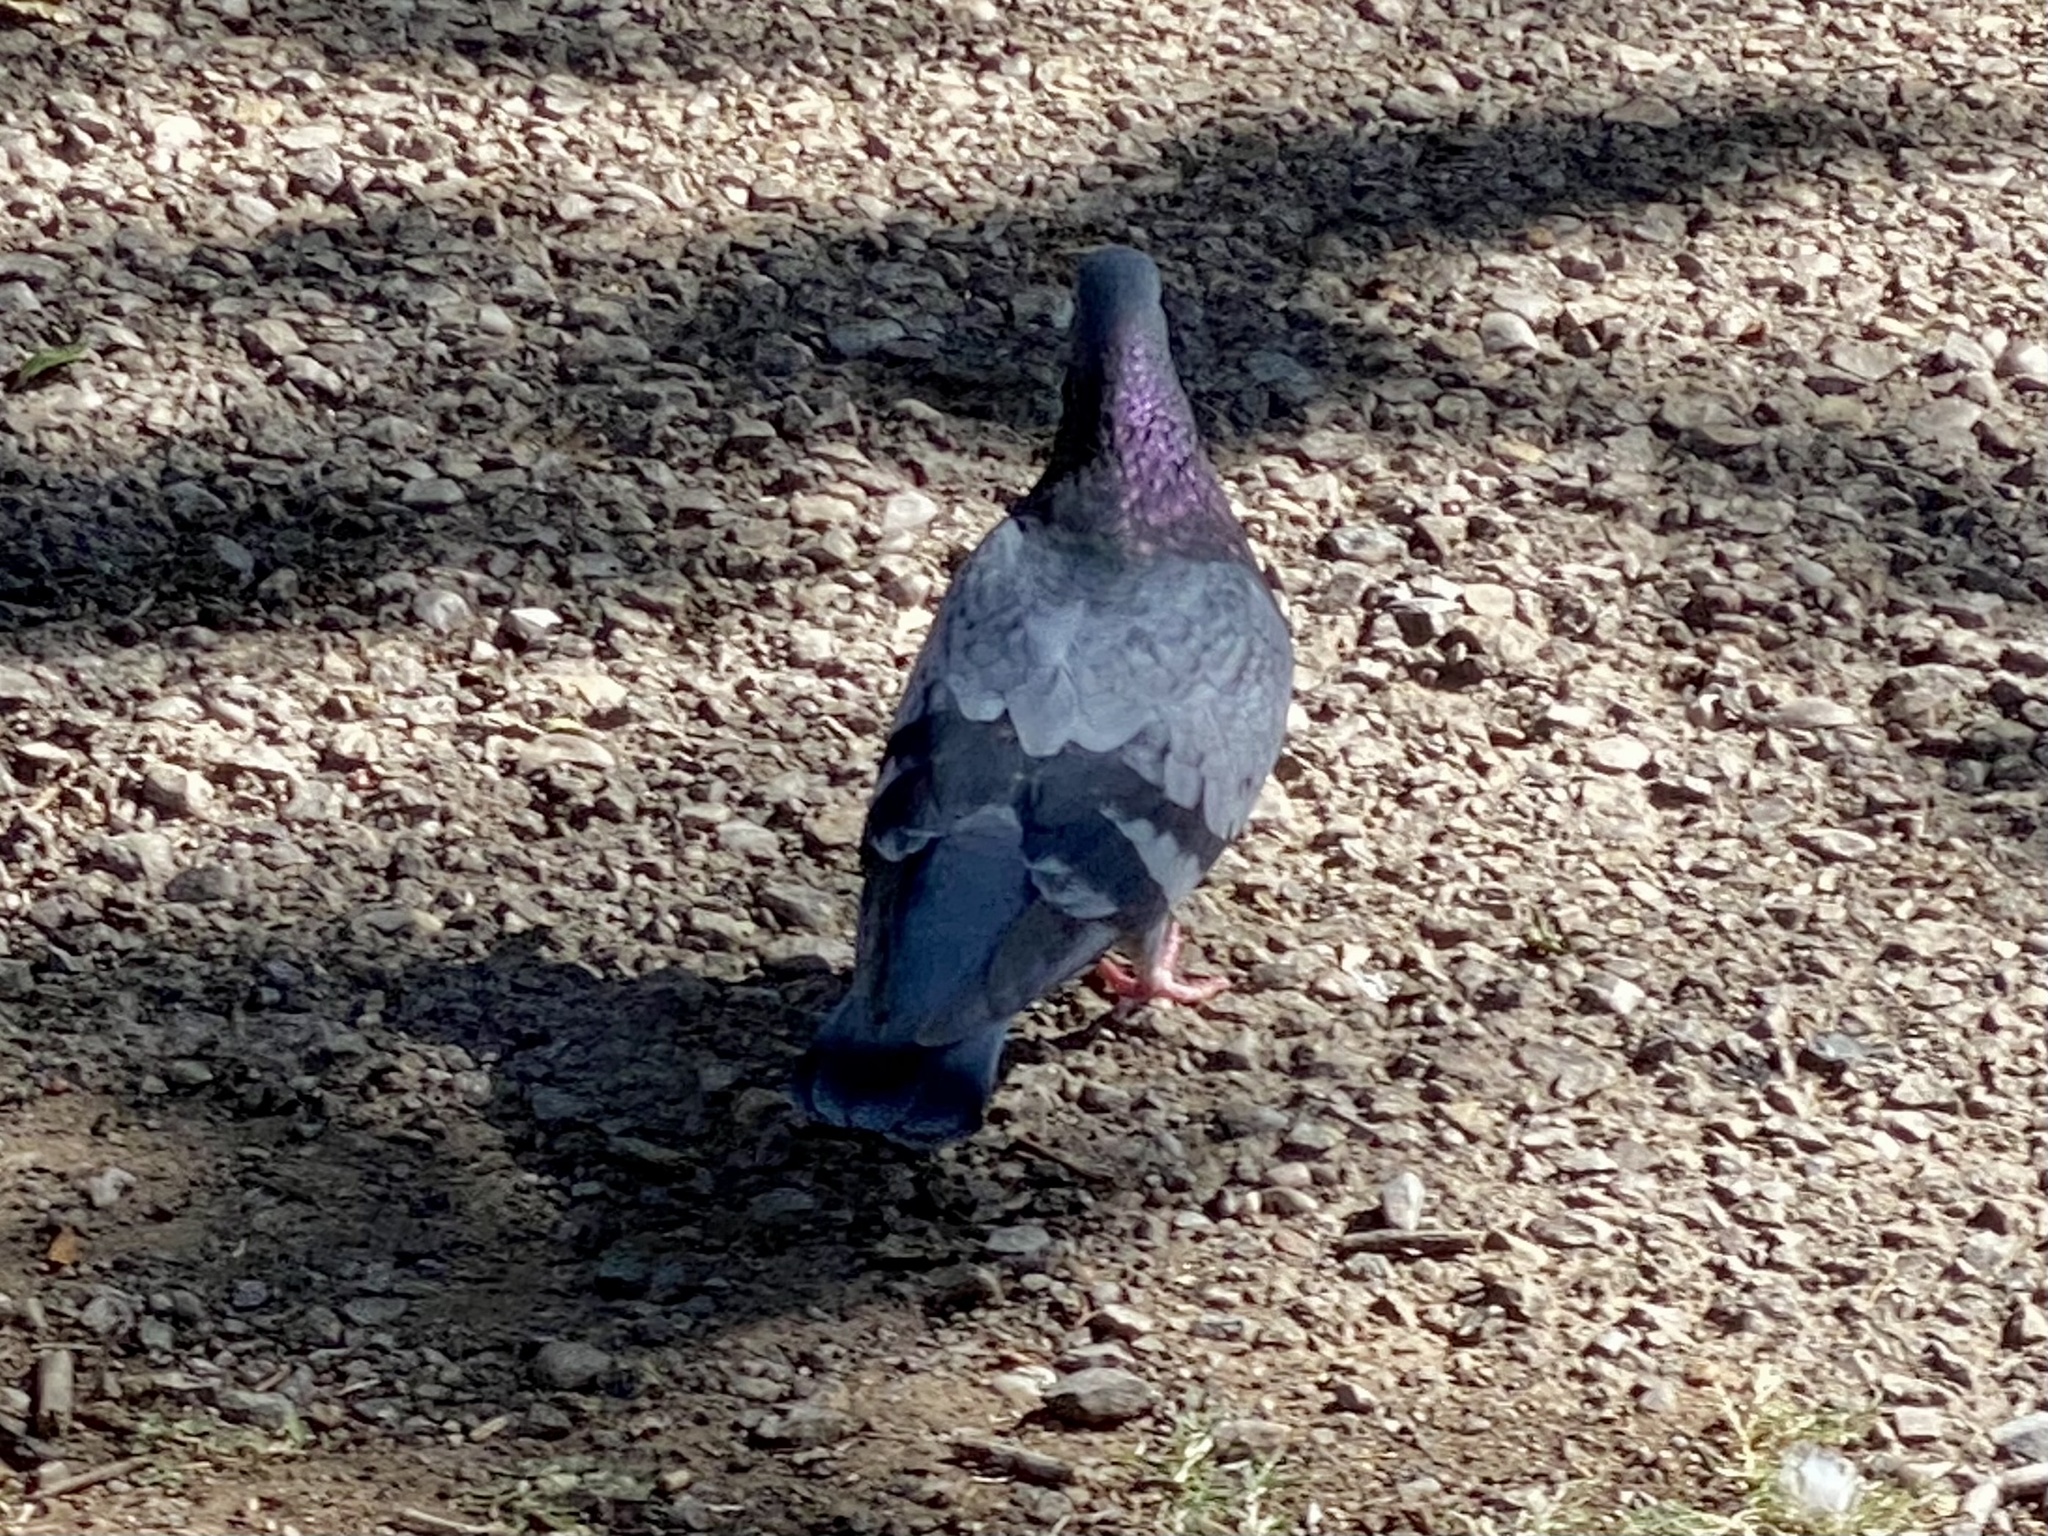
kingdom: Animalia
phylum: Chordata
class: Aves
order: Columbiformes
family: Columbidae
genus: Columba
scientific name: Columba livia
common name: Rock pigeon
